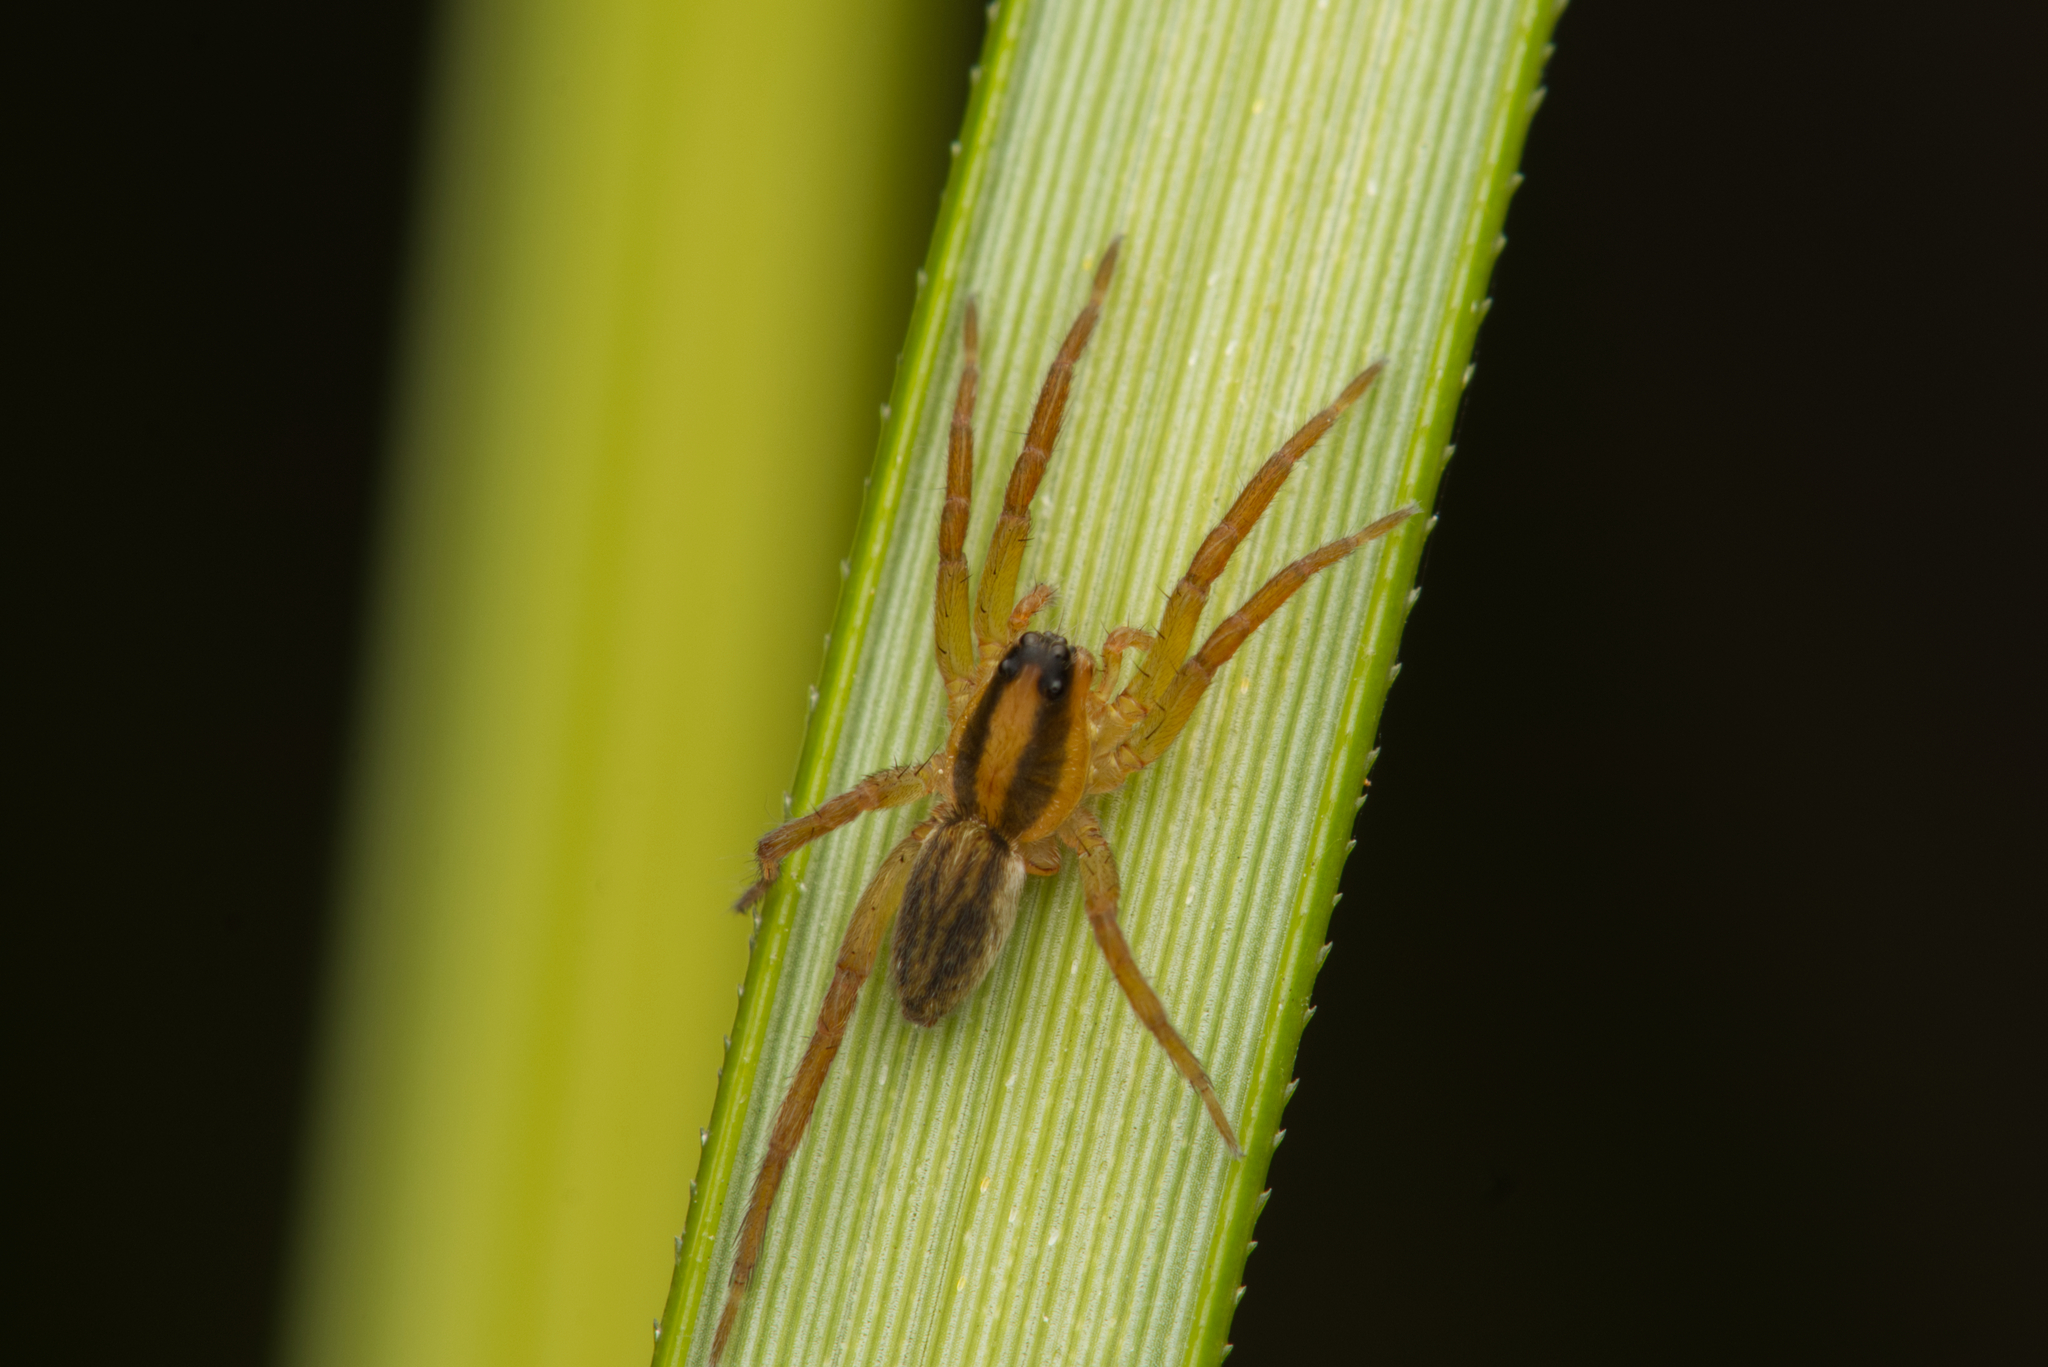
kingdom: Animalia
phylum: Arthropoda
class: Arachnida
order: Araneae
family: Lycosidae
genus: Venatrix
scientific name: Venatrix furcillata
